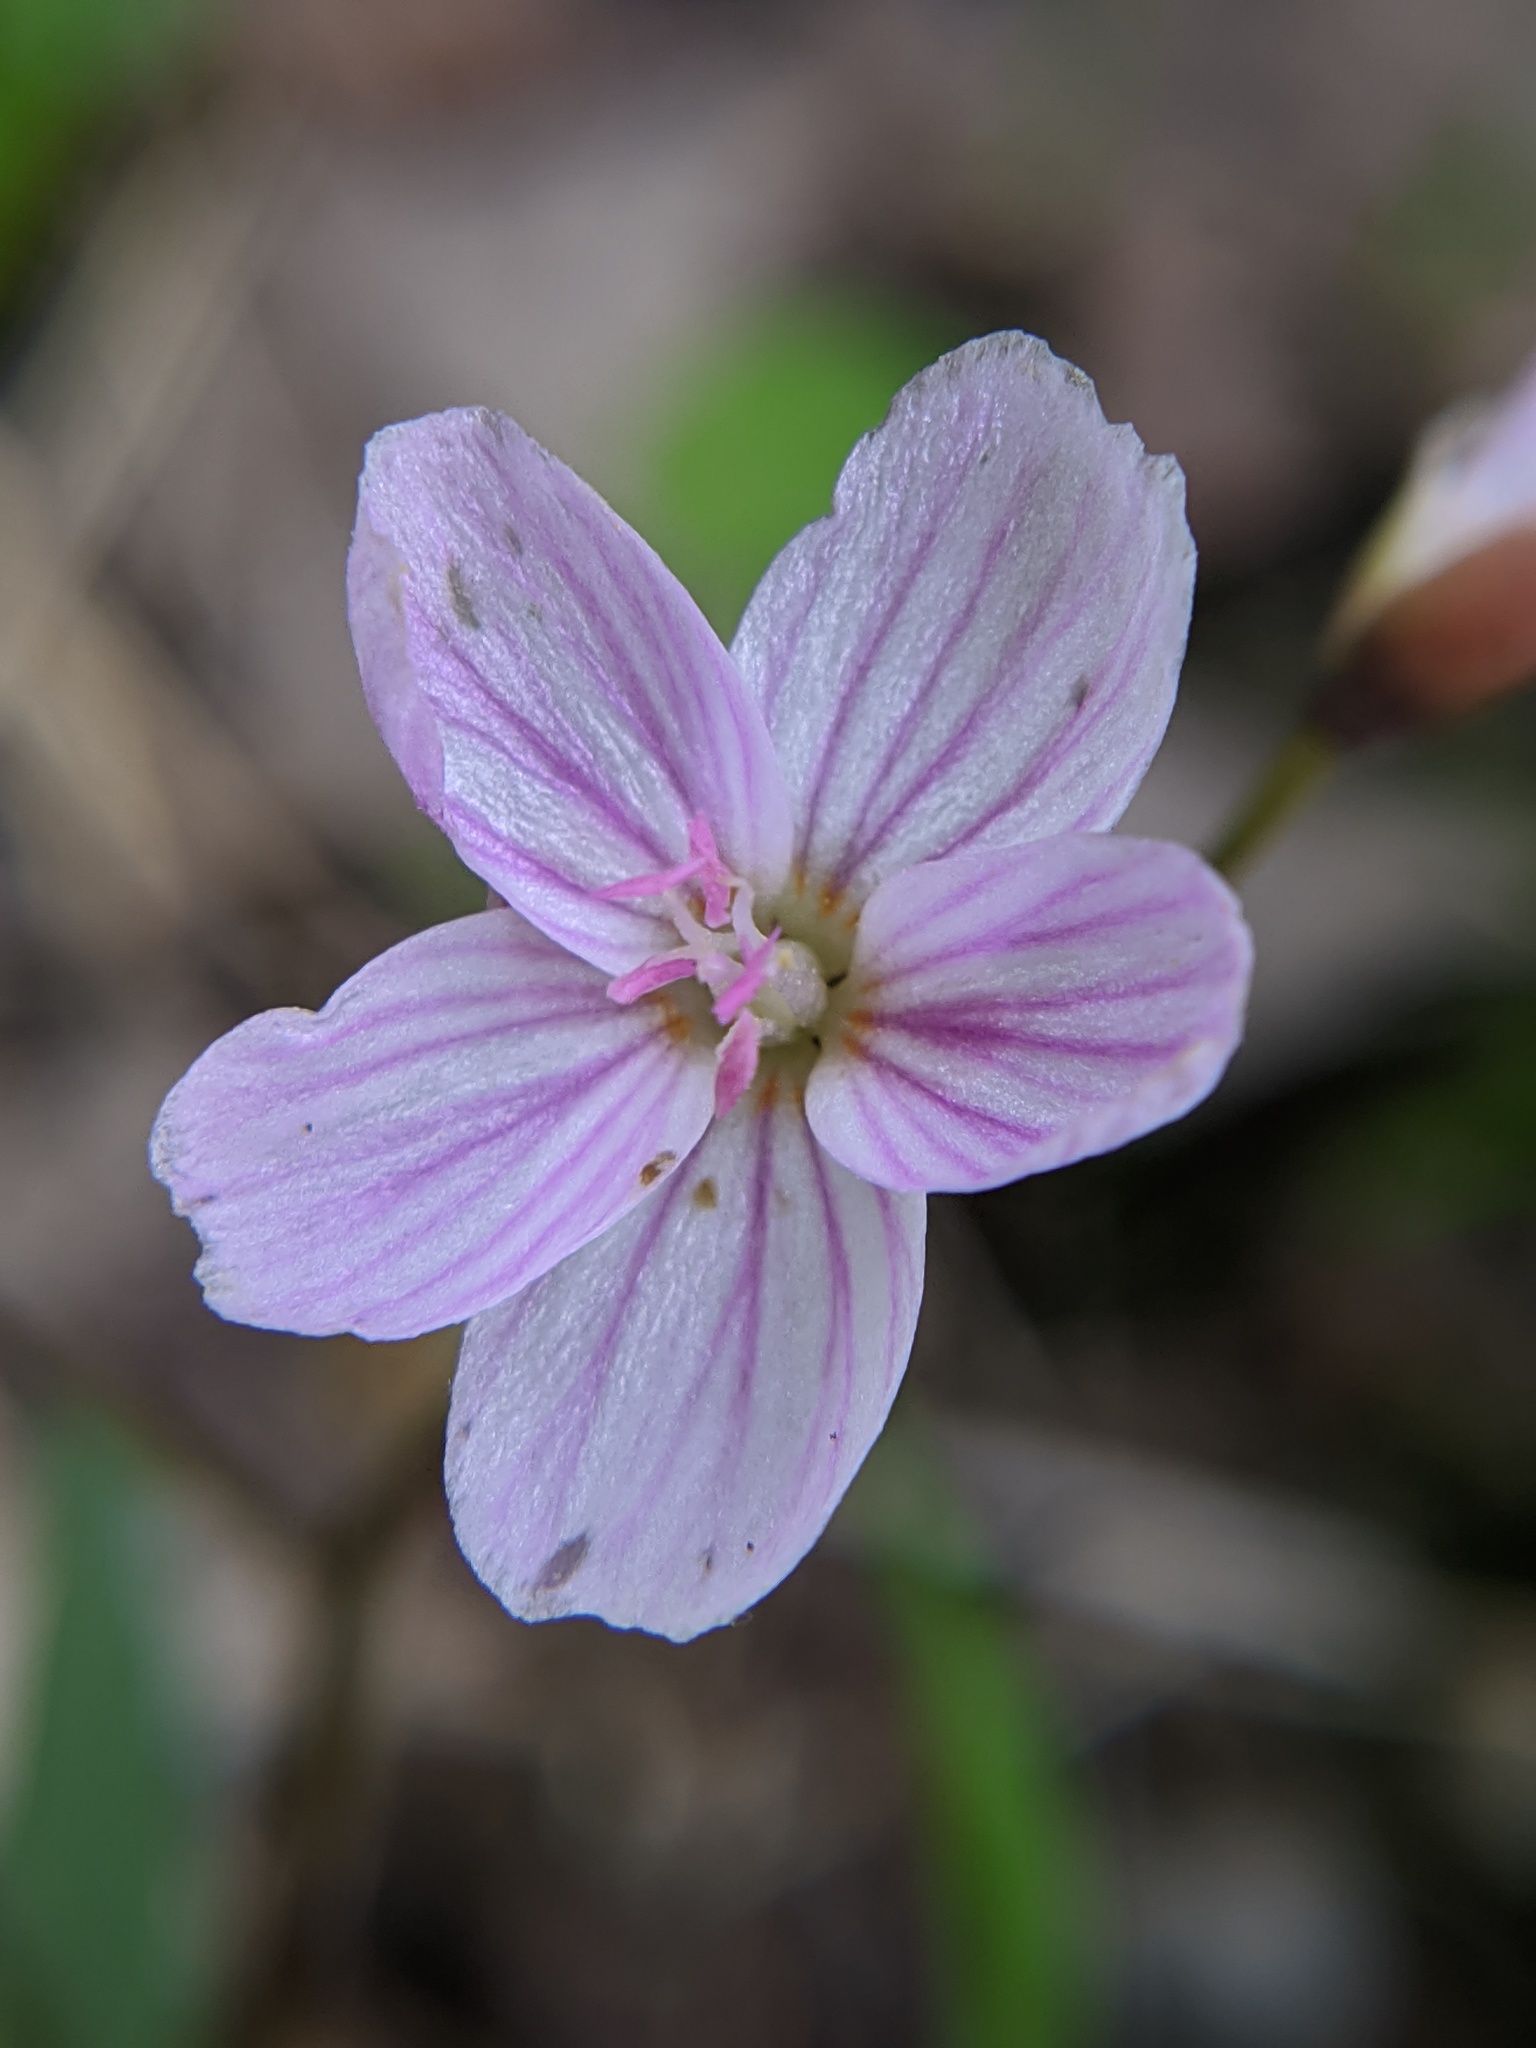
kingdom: Plantae
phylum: Tracheophyta
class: Magnoliopsida
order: Caryophyllales
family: Montiaceae
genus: Claytonia
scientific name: Claytonia virginica
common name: Virginia springbeauty
